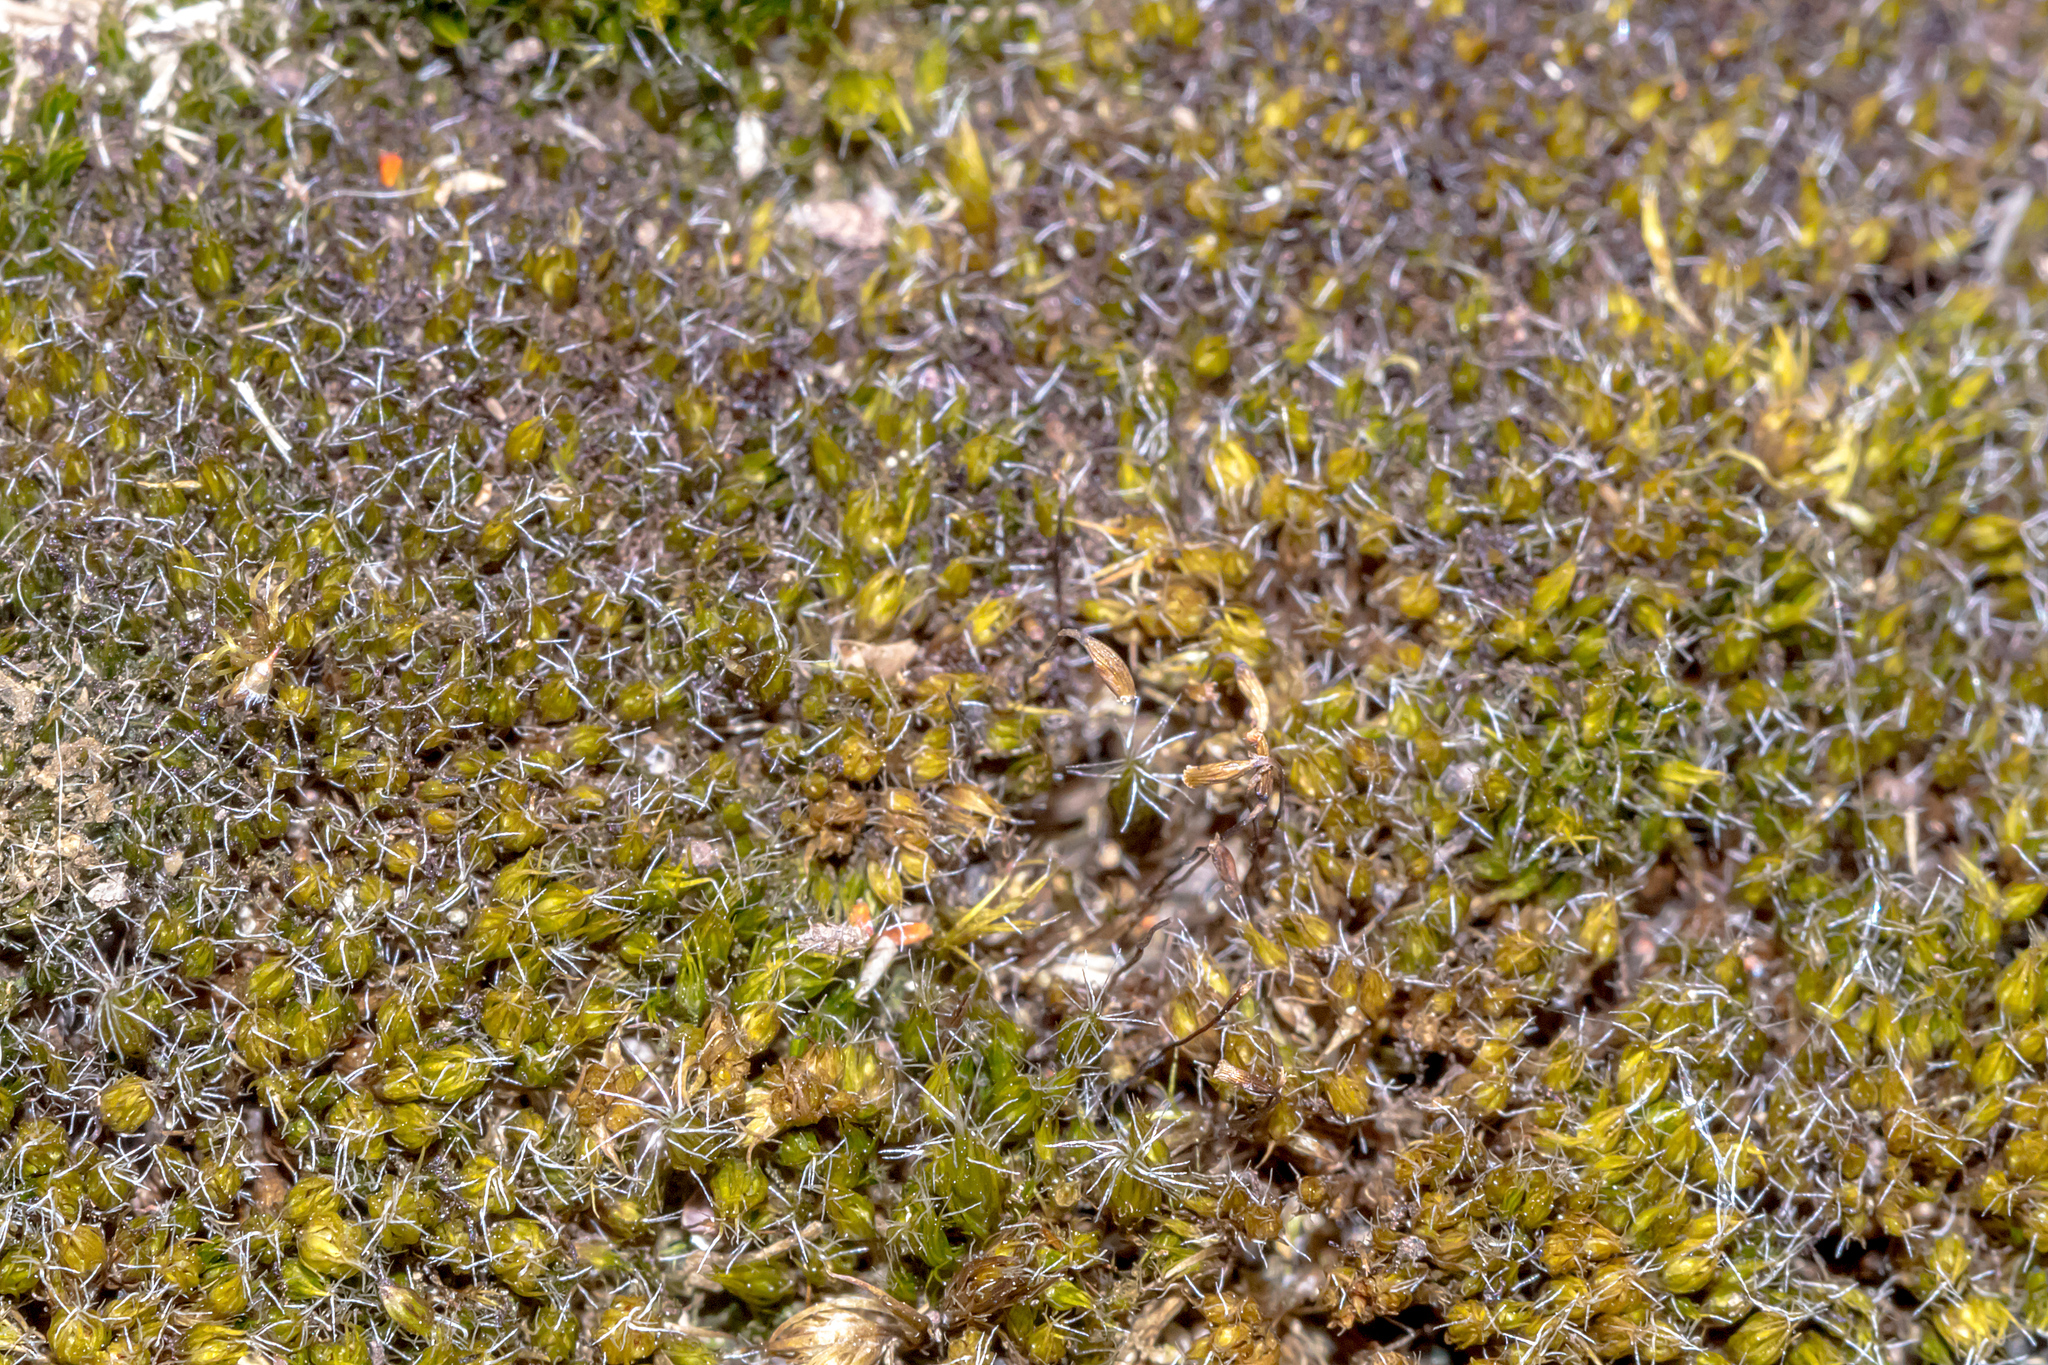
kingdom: Plantae
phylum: Bryophyta
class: Bryopsida
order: Dicranales
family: Leucobryaceae
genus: Campylopus
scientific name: Campylopus introflexus
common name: Heath star moss
